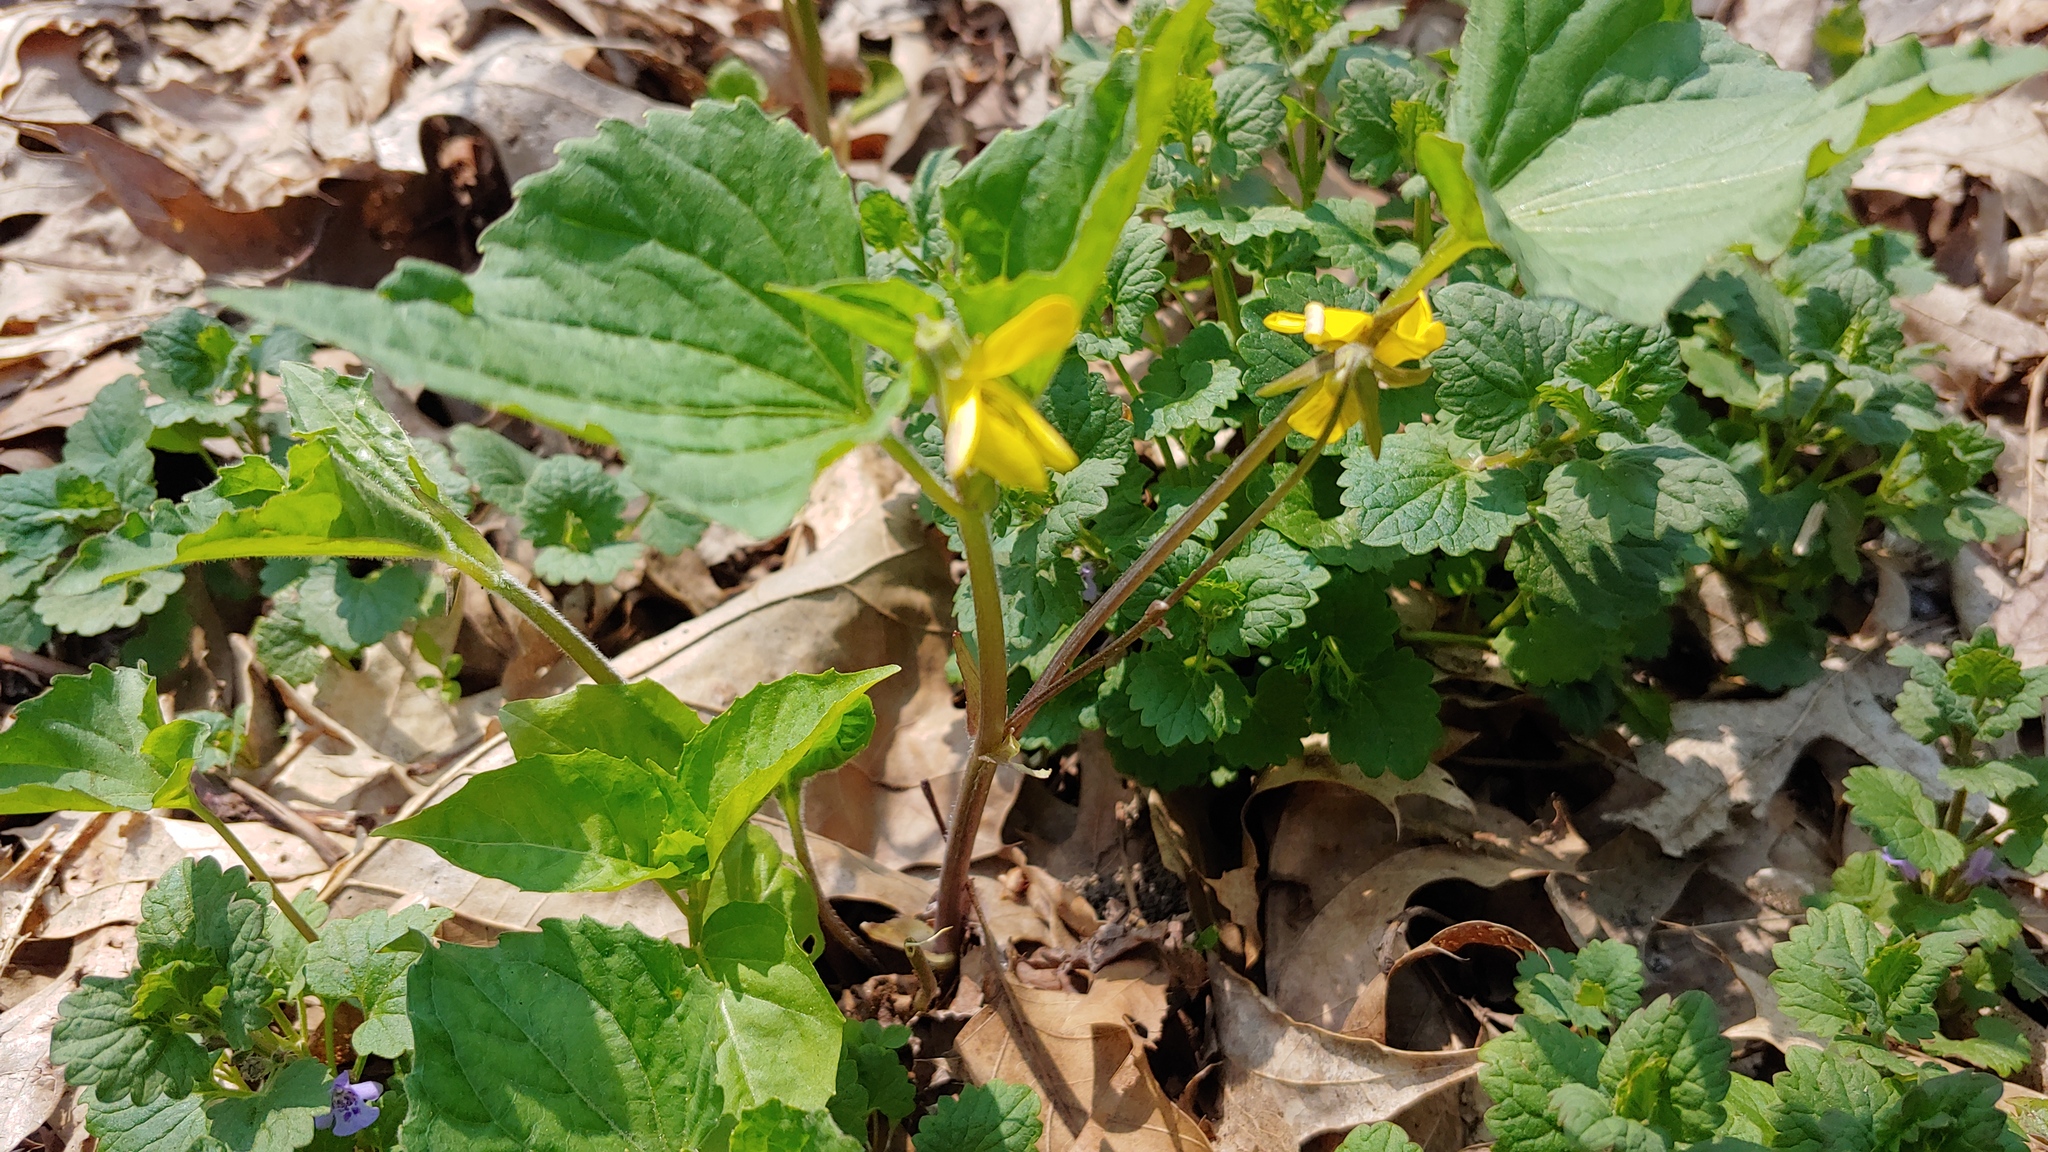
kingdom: Plantae
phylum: Tracheophyta
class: Magnoliopsida
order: Malpighiales
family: Violaceae
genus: Viola
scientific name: Viola eriocarpa
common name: Smooth yellow violet
